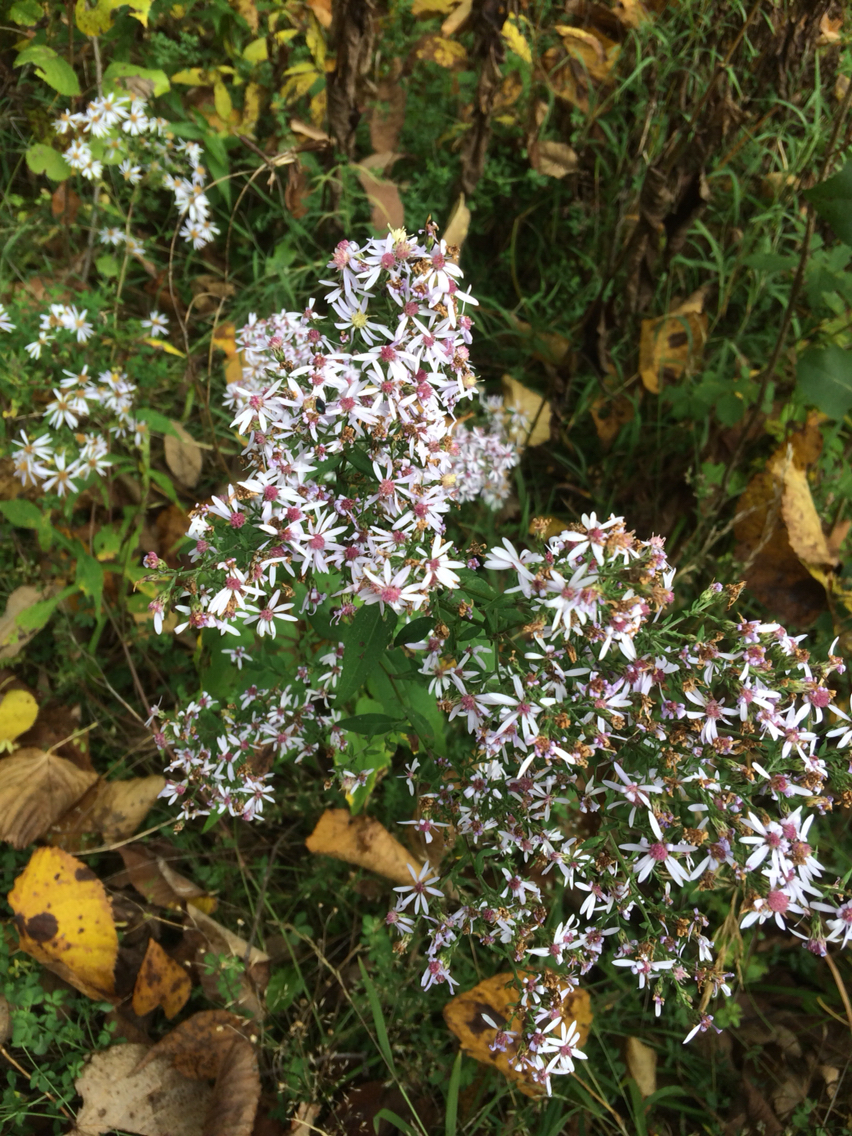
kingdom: Plantae
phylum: Tracheophyta
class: Magnoliopsida
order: Asterales
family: Asteraceae
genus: Symphyotrichum
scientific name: Symphyotrichum cordifolium
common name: Beeweed
